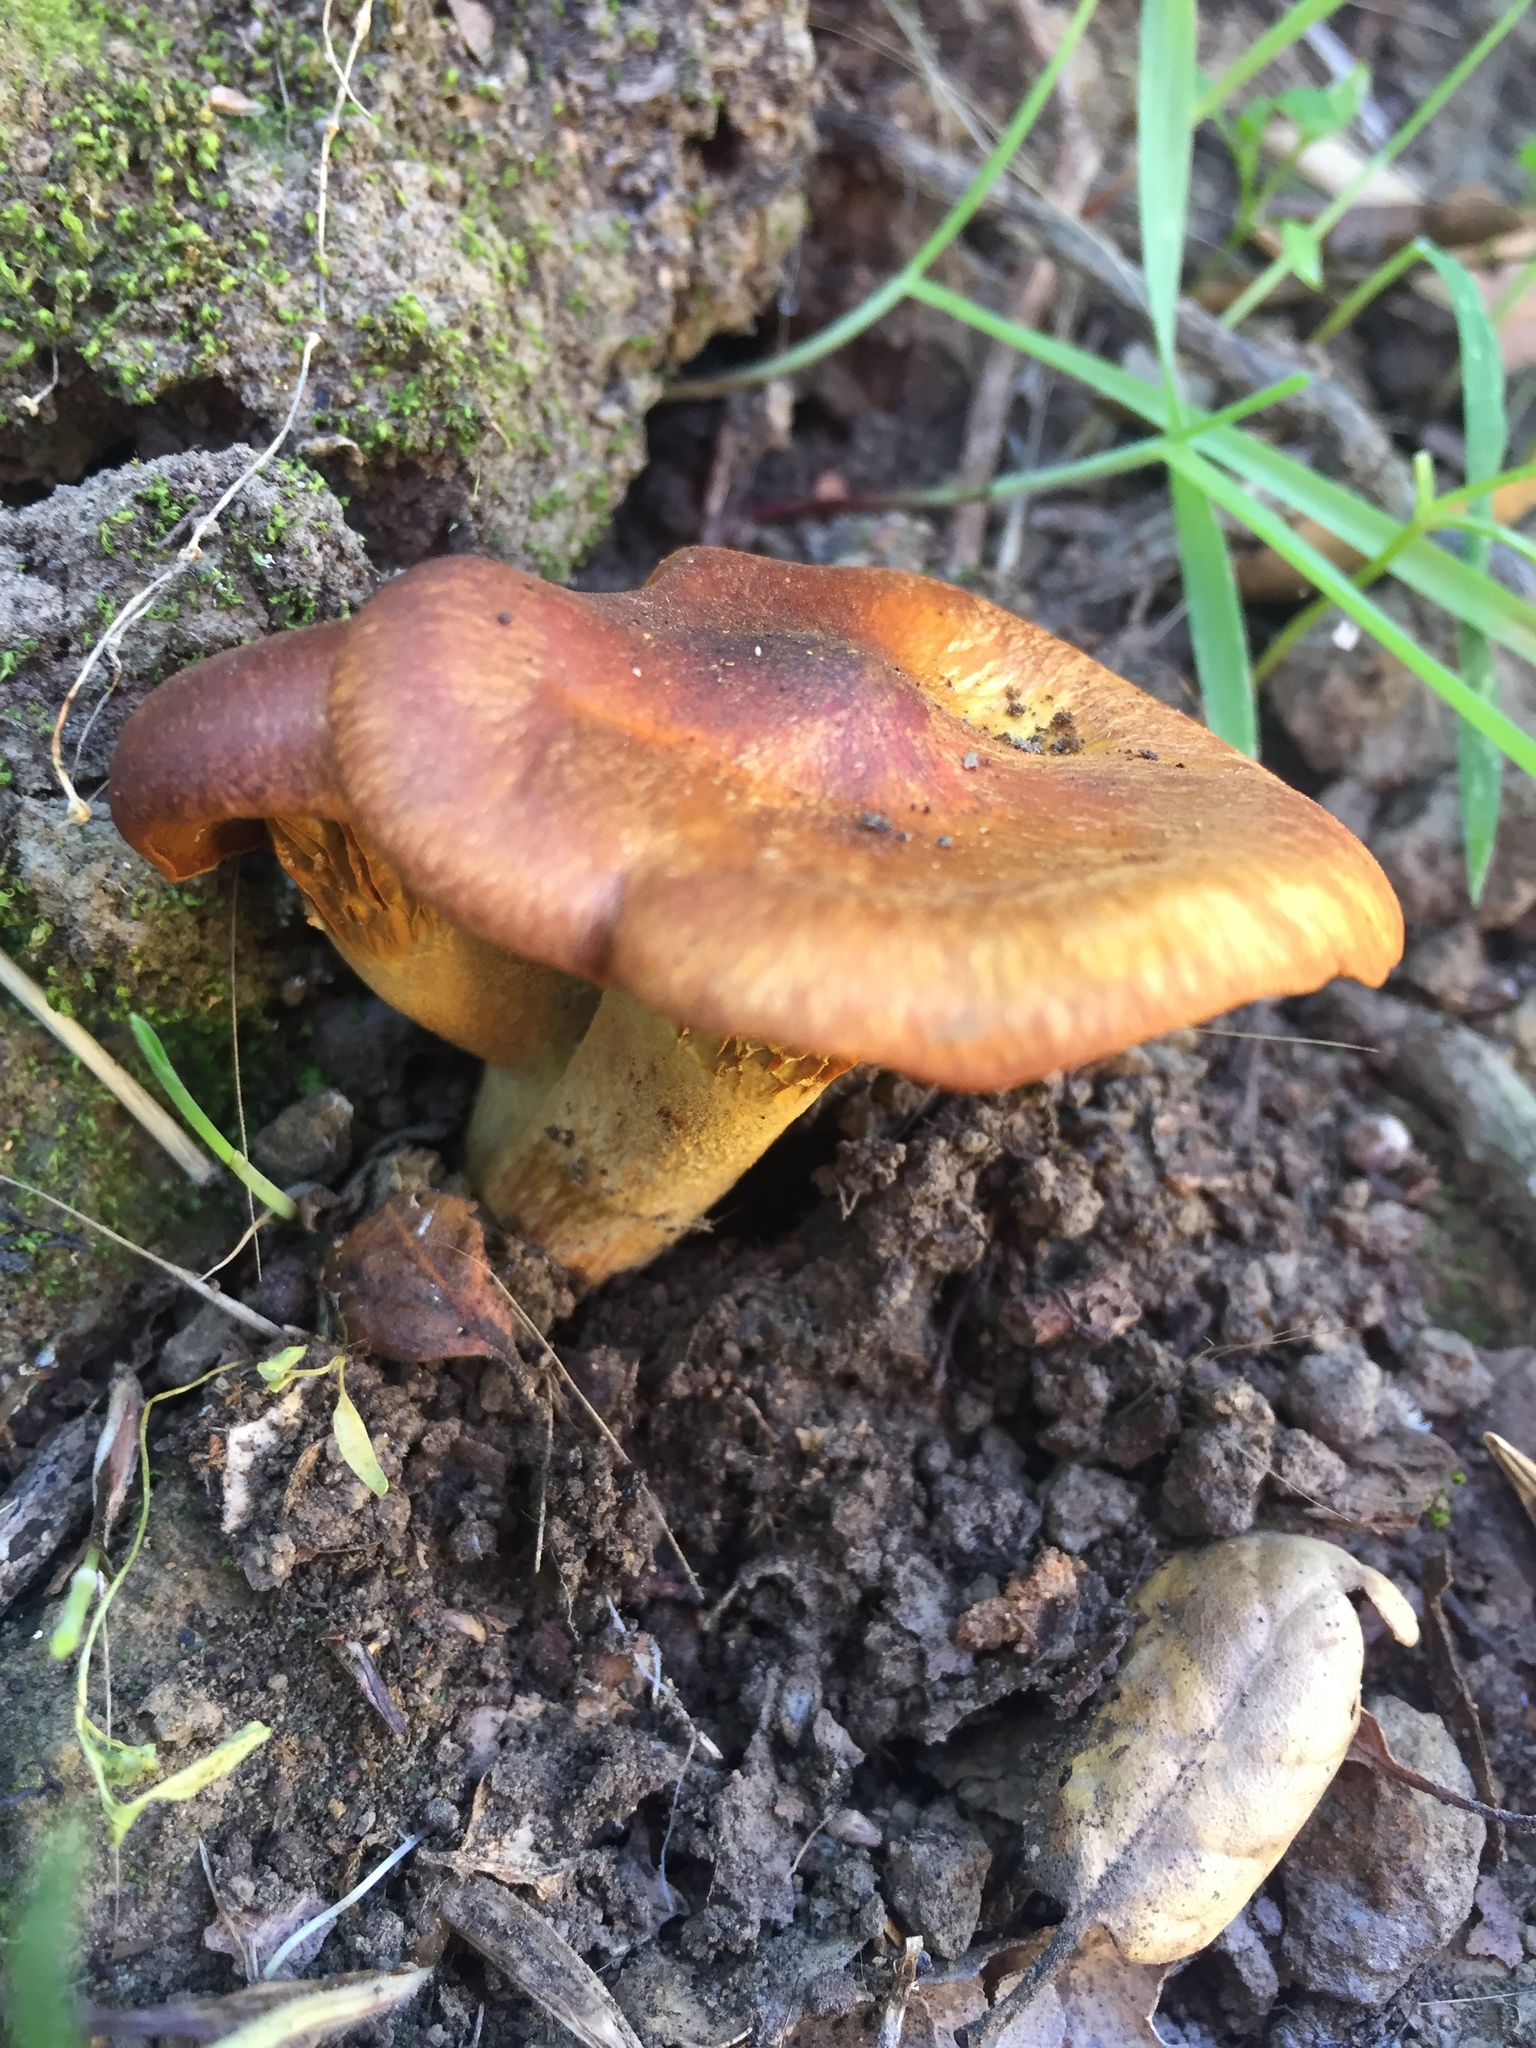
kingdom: Fungi
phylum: Basidiomycota
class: Agaricomycetes
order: Agaricales
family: Omphalotaceae
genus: Omphalotus
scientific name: Omphalotus olivascens
